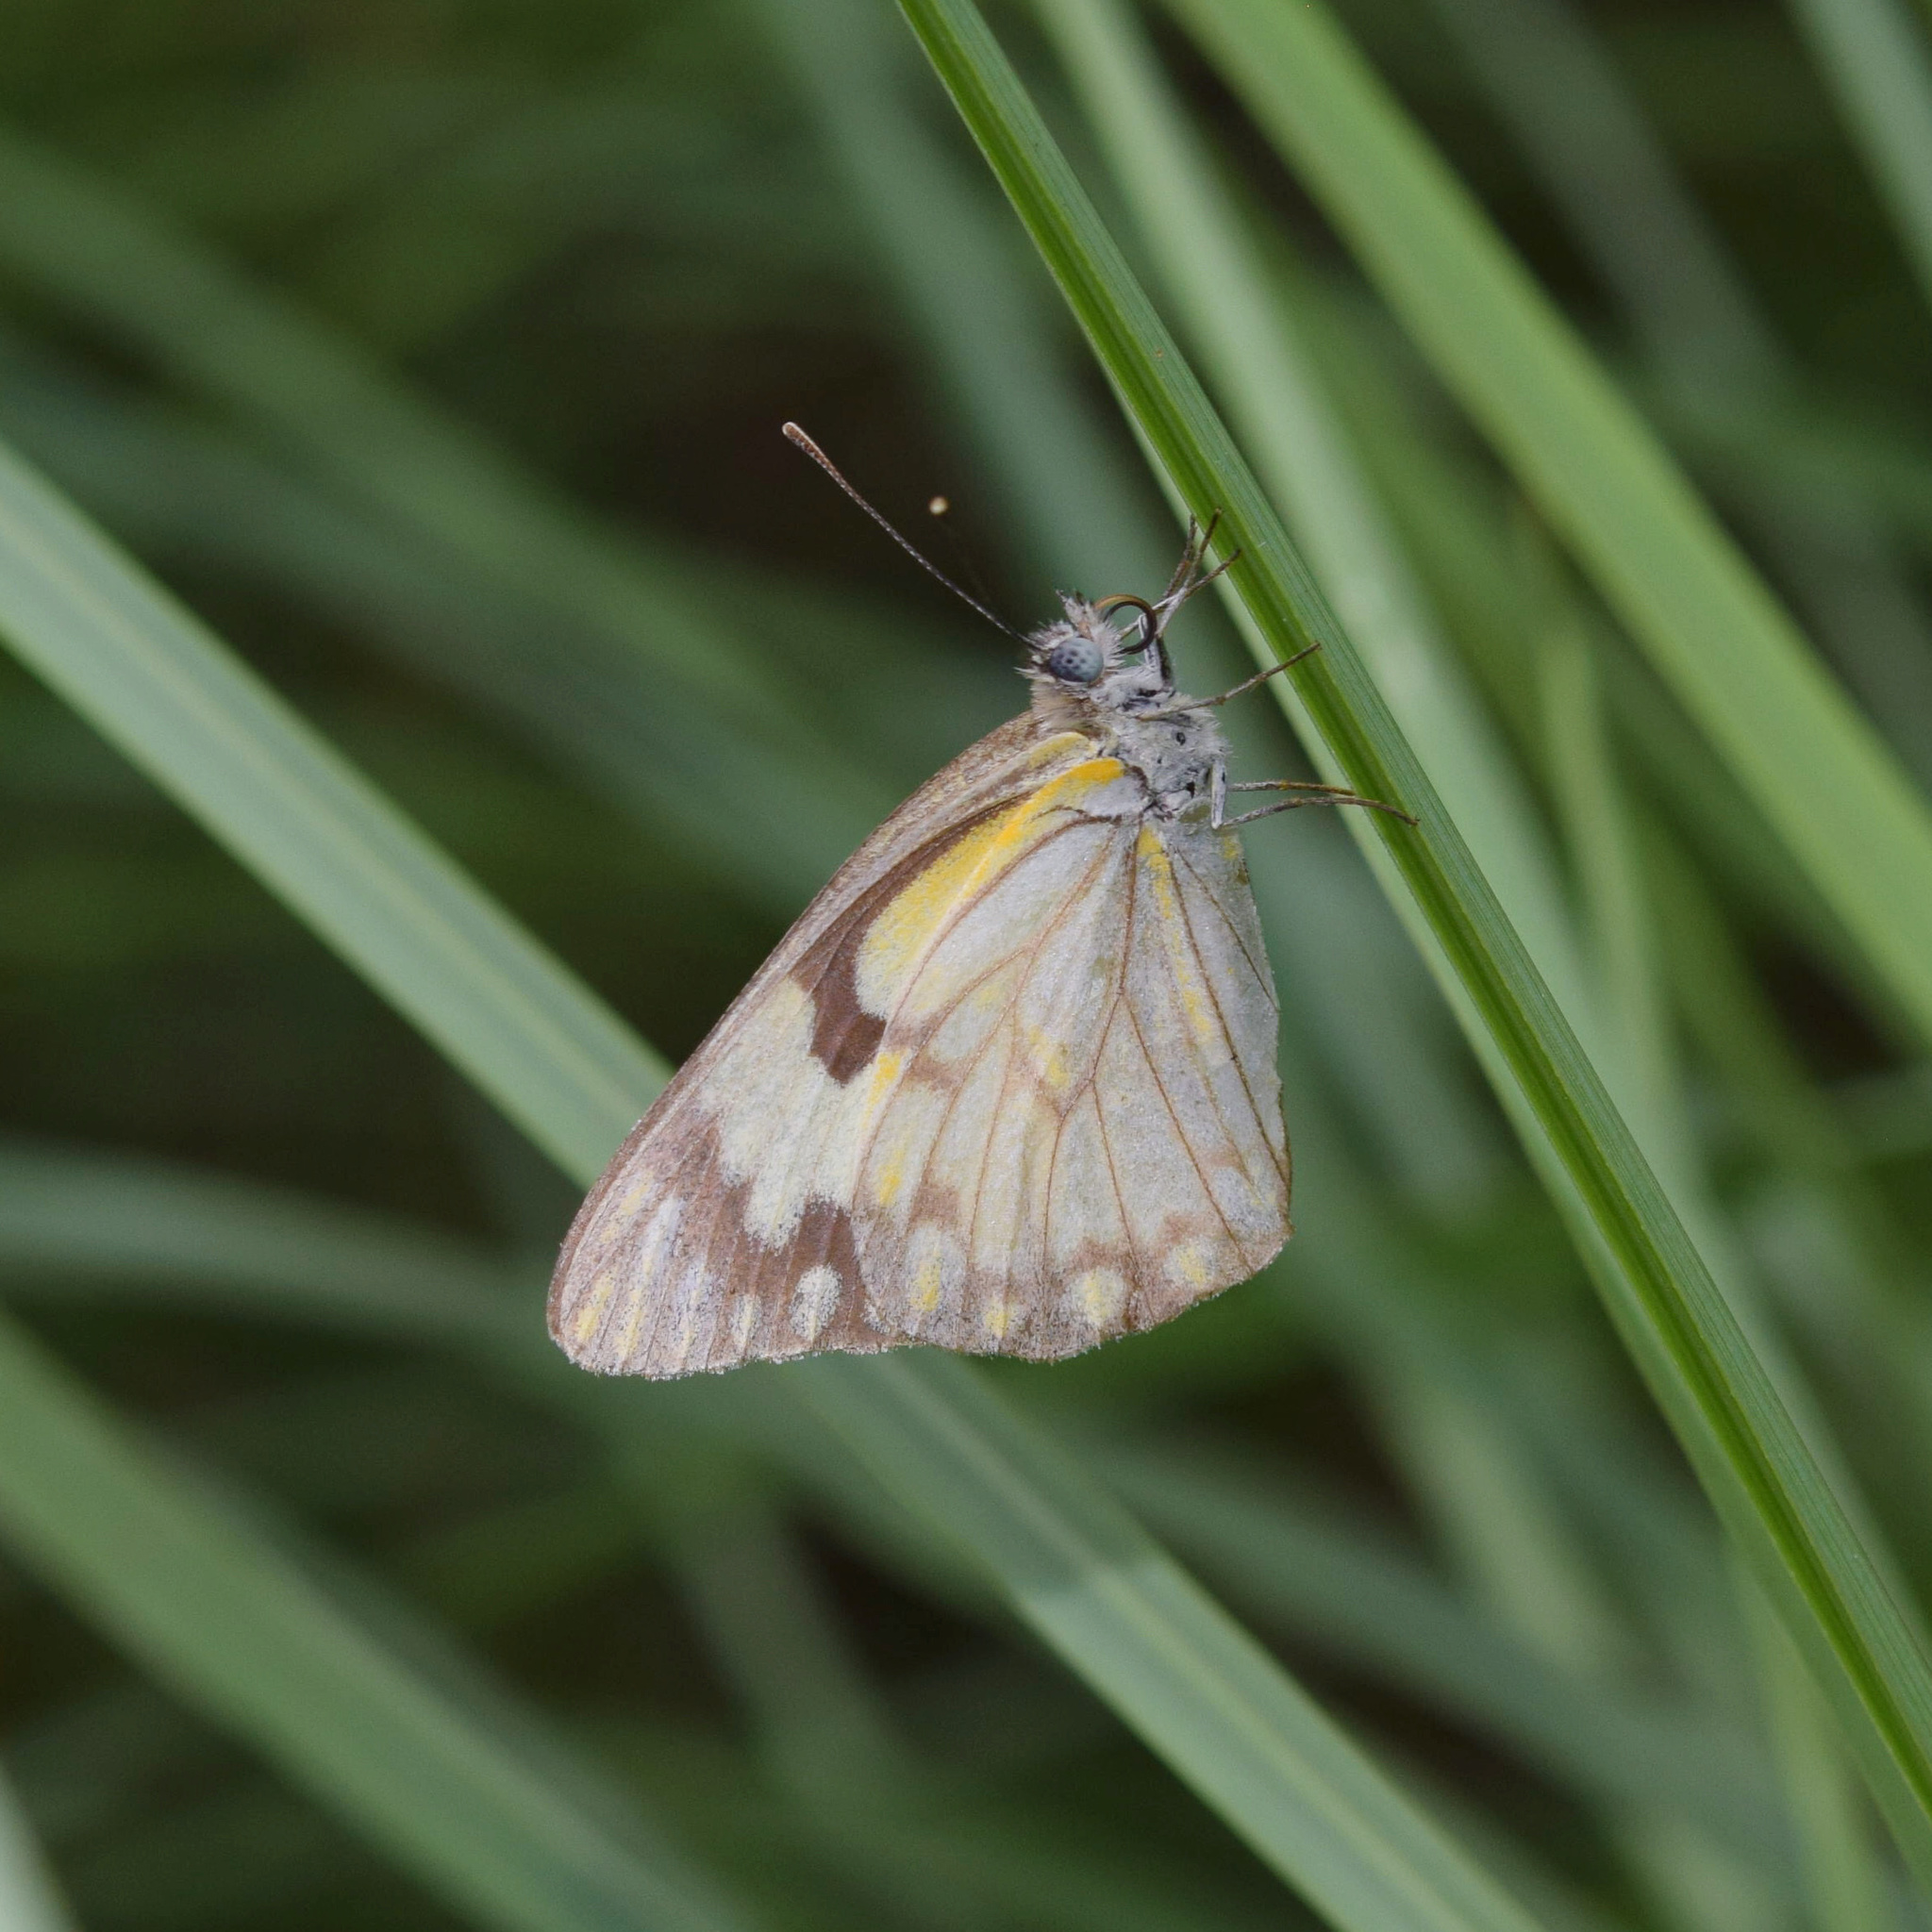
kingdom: Animalia
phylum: Arthropoda
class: Insecta
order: Lepidoptera
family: Pieridae
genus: Belenois
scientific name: Belenois aurota
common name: Brown-veined white
